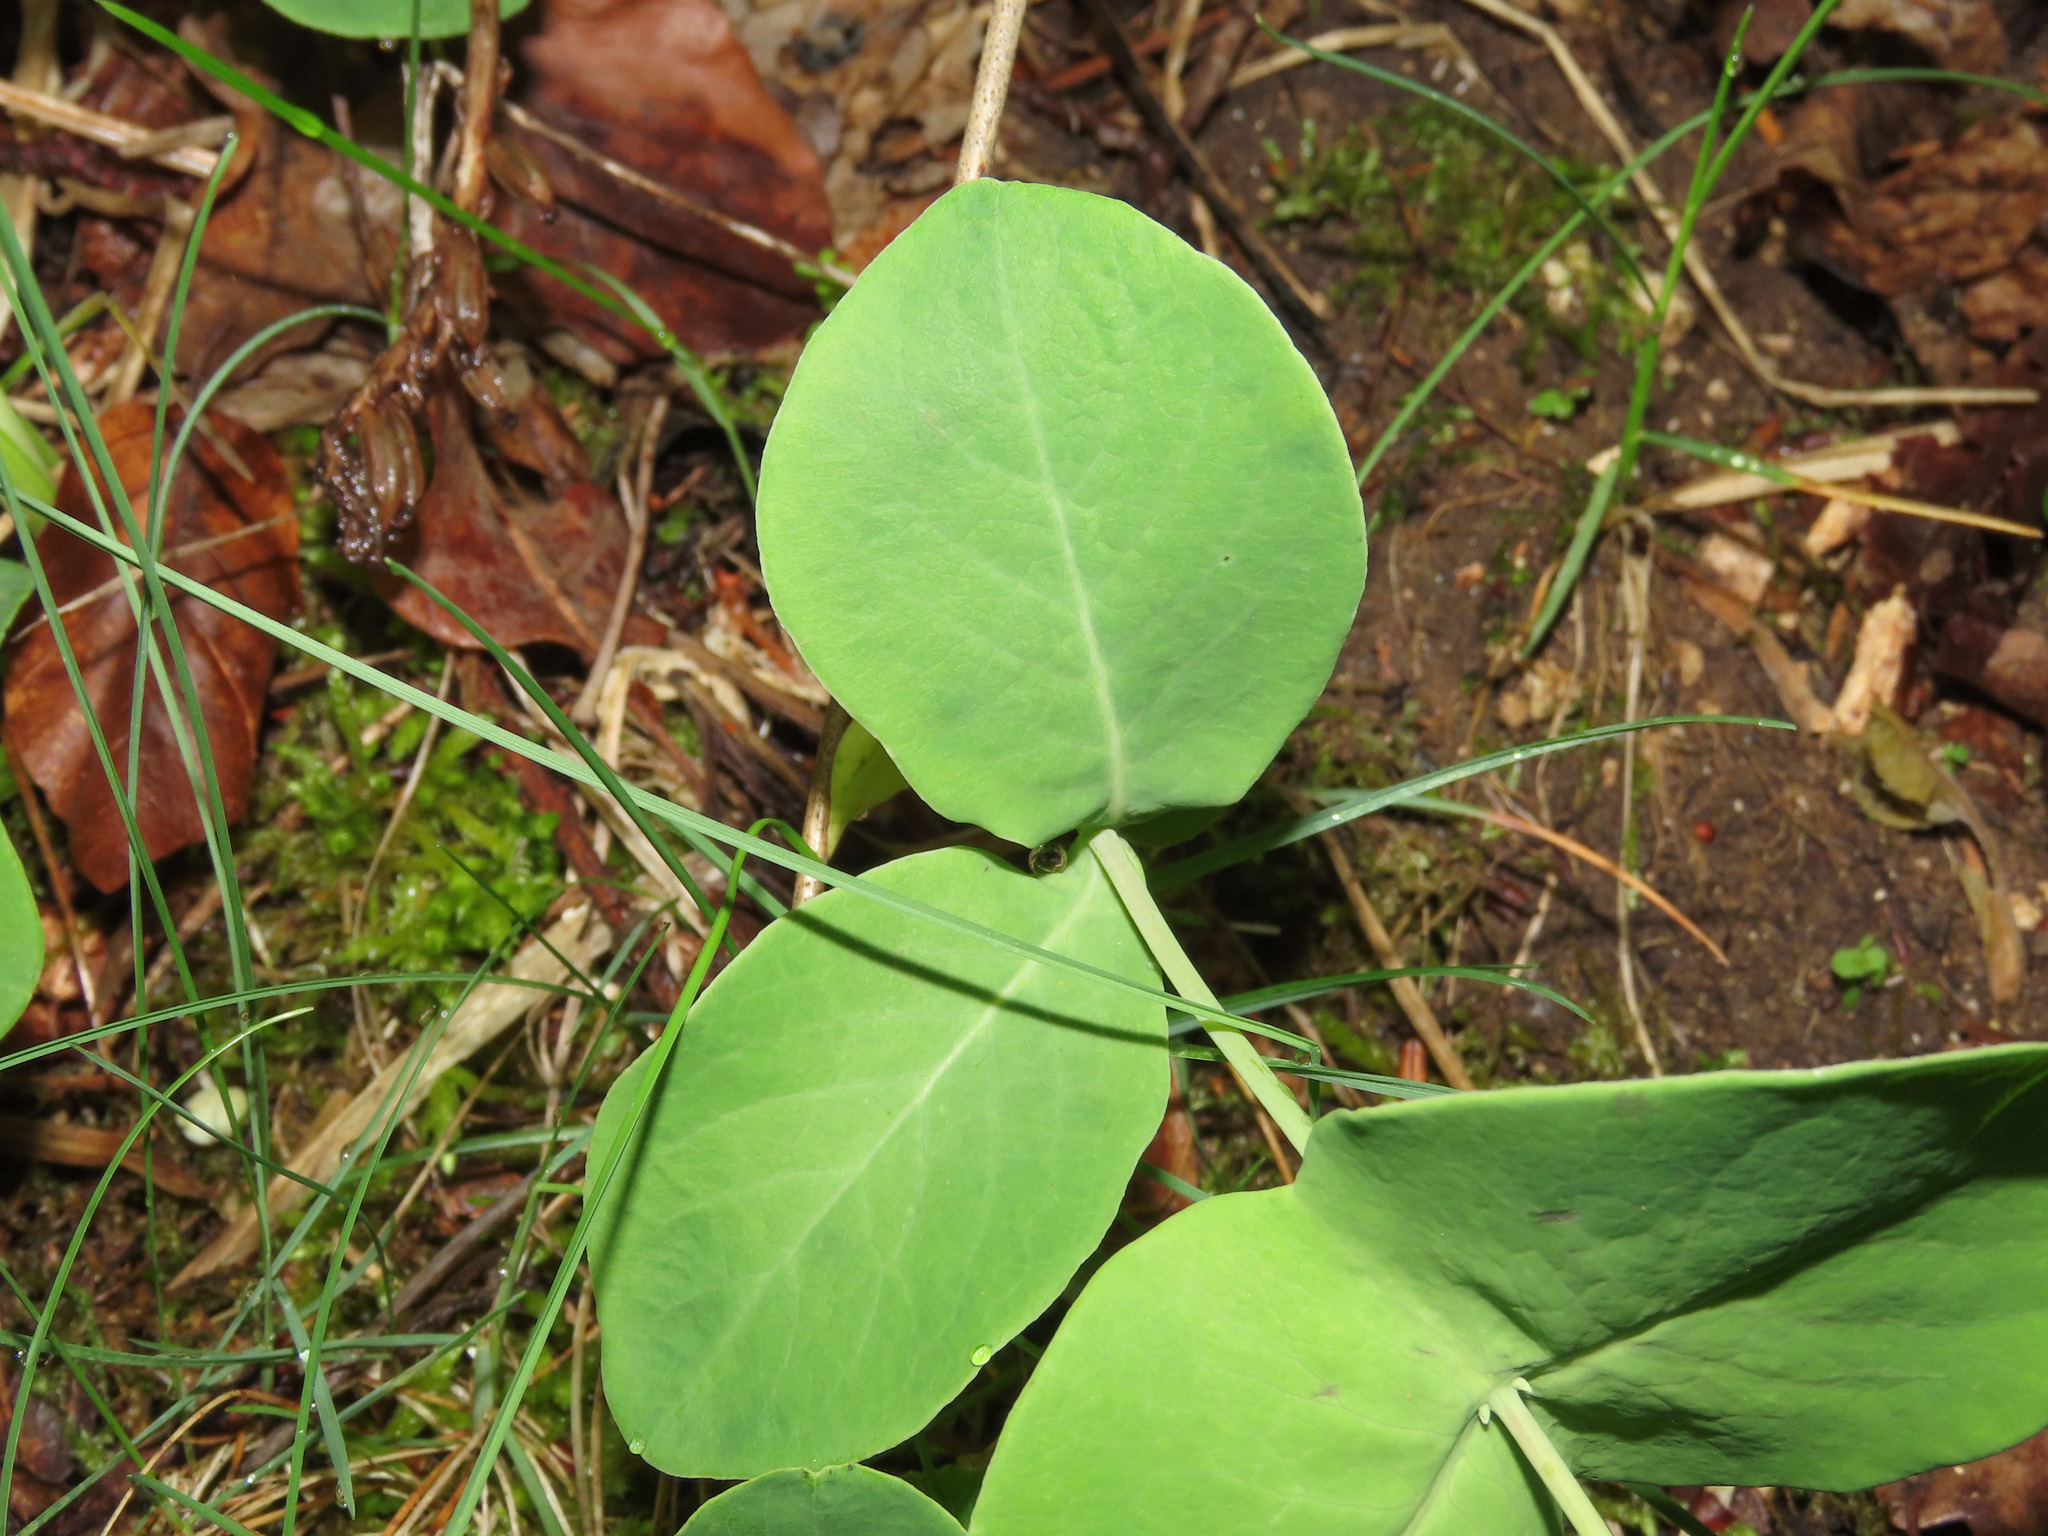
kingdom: Plantae
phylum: Tracheophyta
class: Magnoliopsida
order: Dipsacales
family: Caprifoliaceae
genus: Lonicera
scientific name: Lonicera caprifolium
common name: Perfoliate honeysuckle
